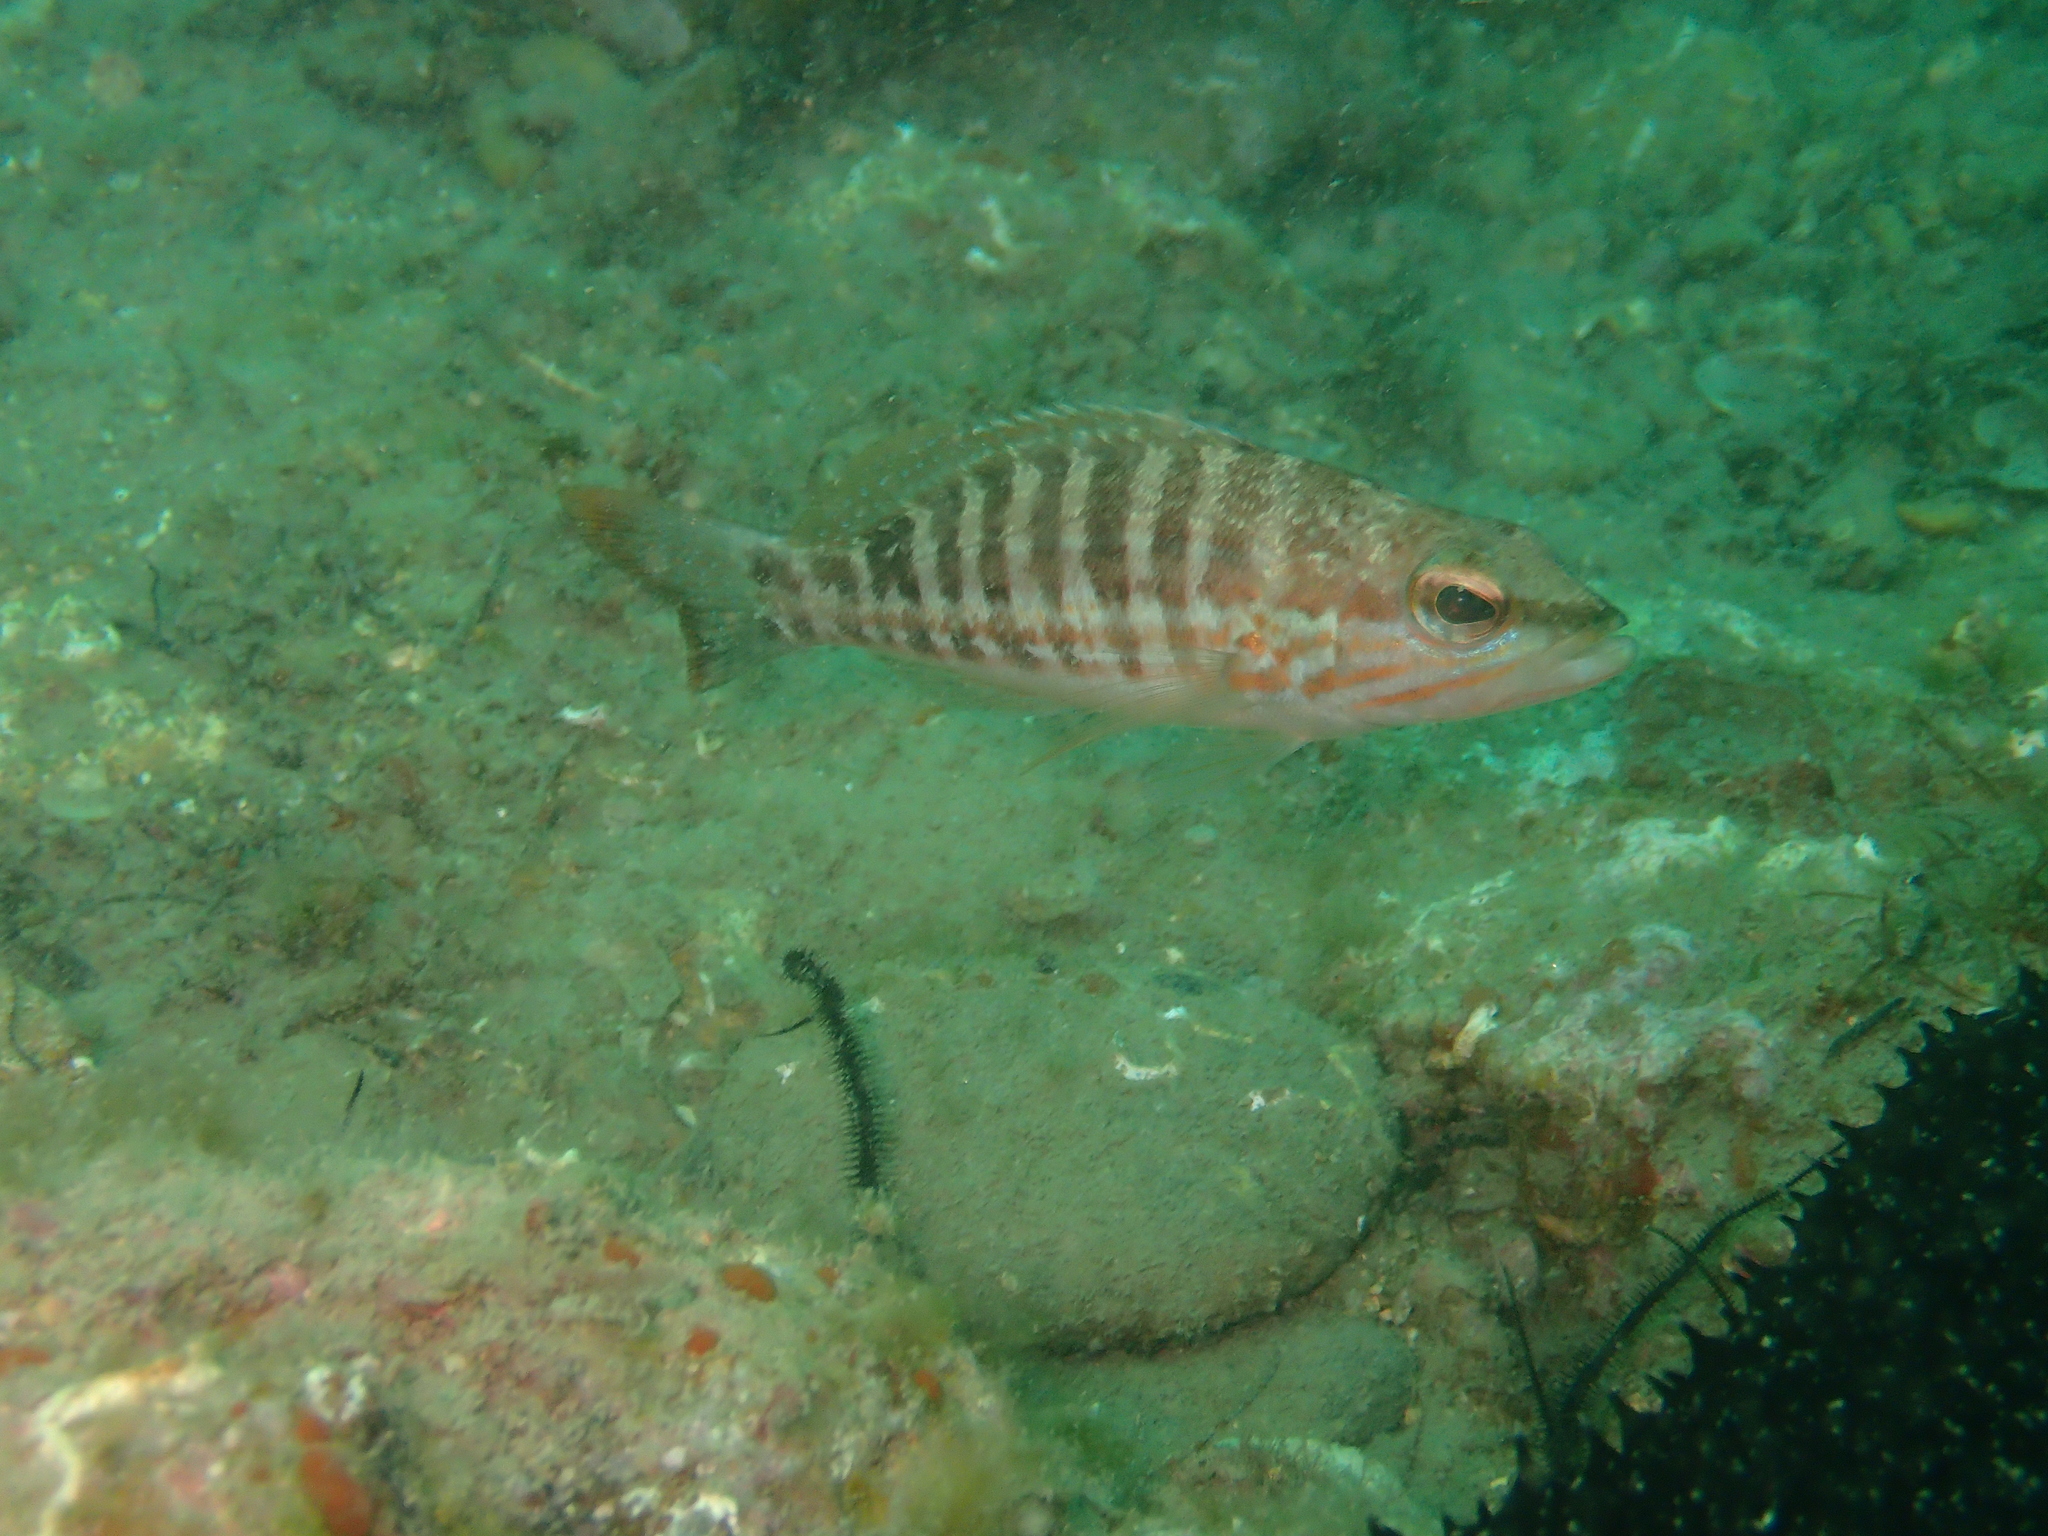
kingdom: Animalia
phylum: Chordata
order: Perciformes
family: Serranidae
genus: Serranus
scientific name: Serranus cabrilla
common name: Comber
